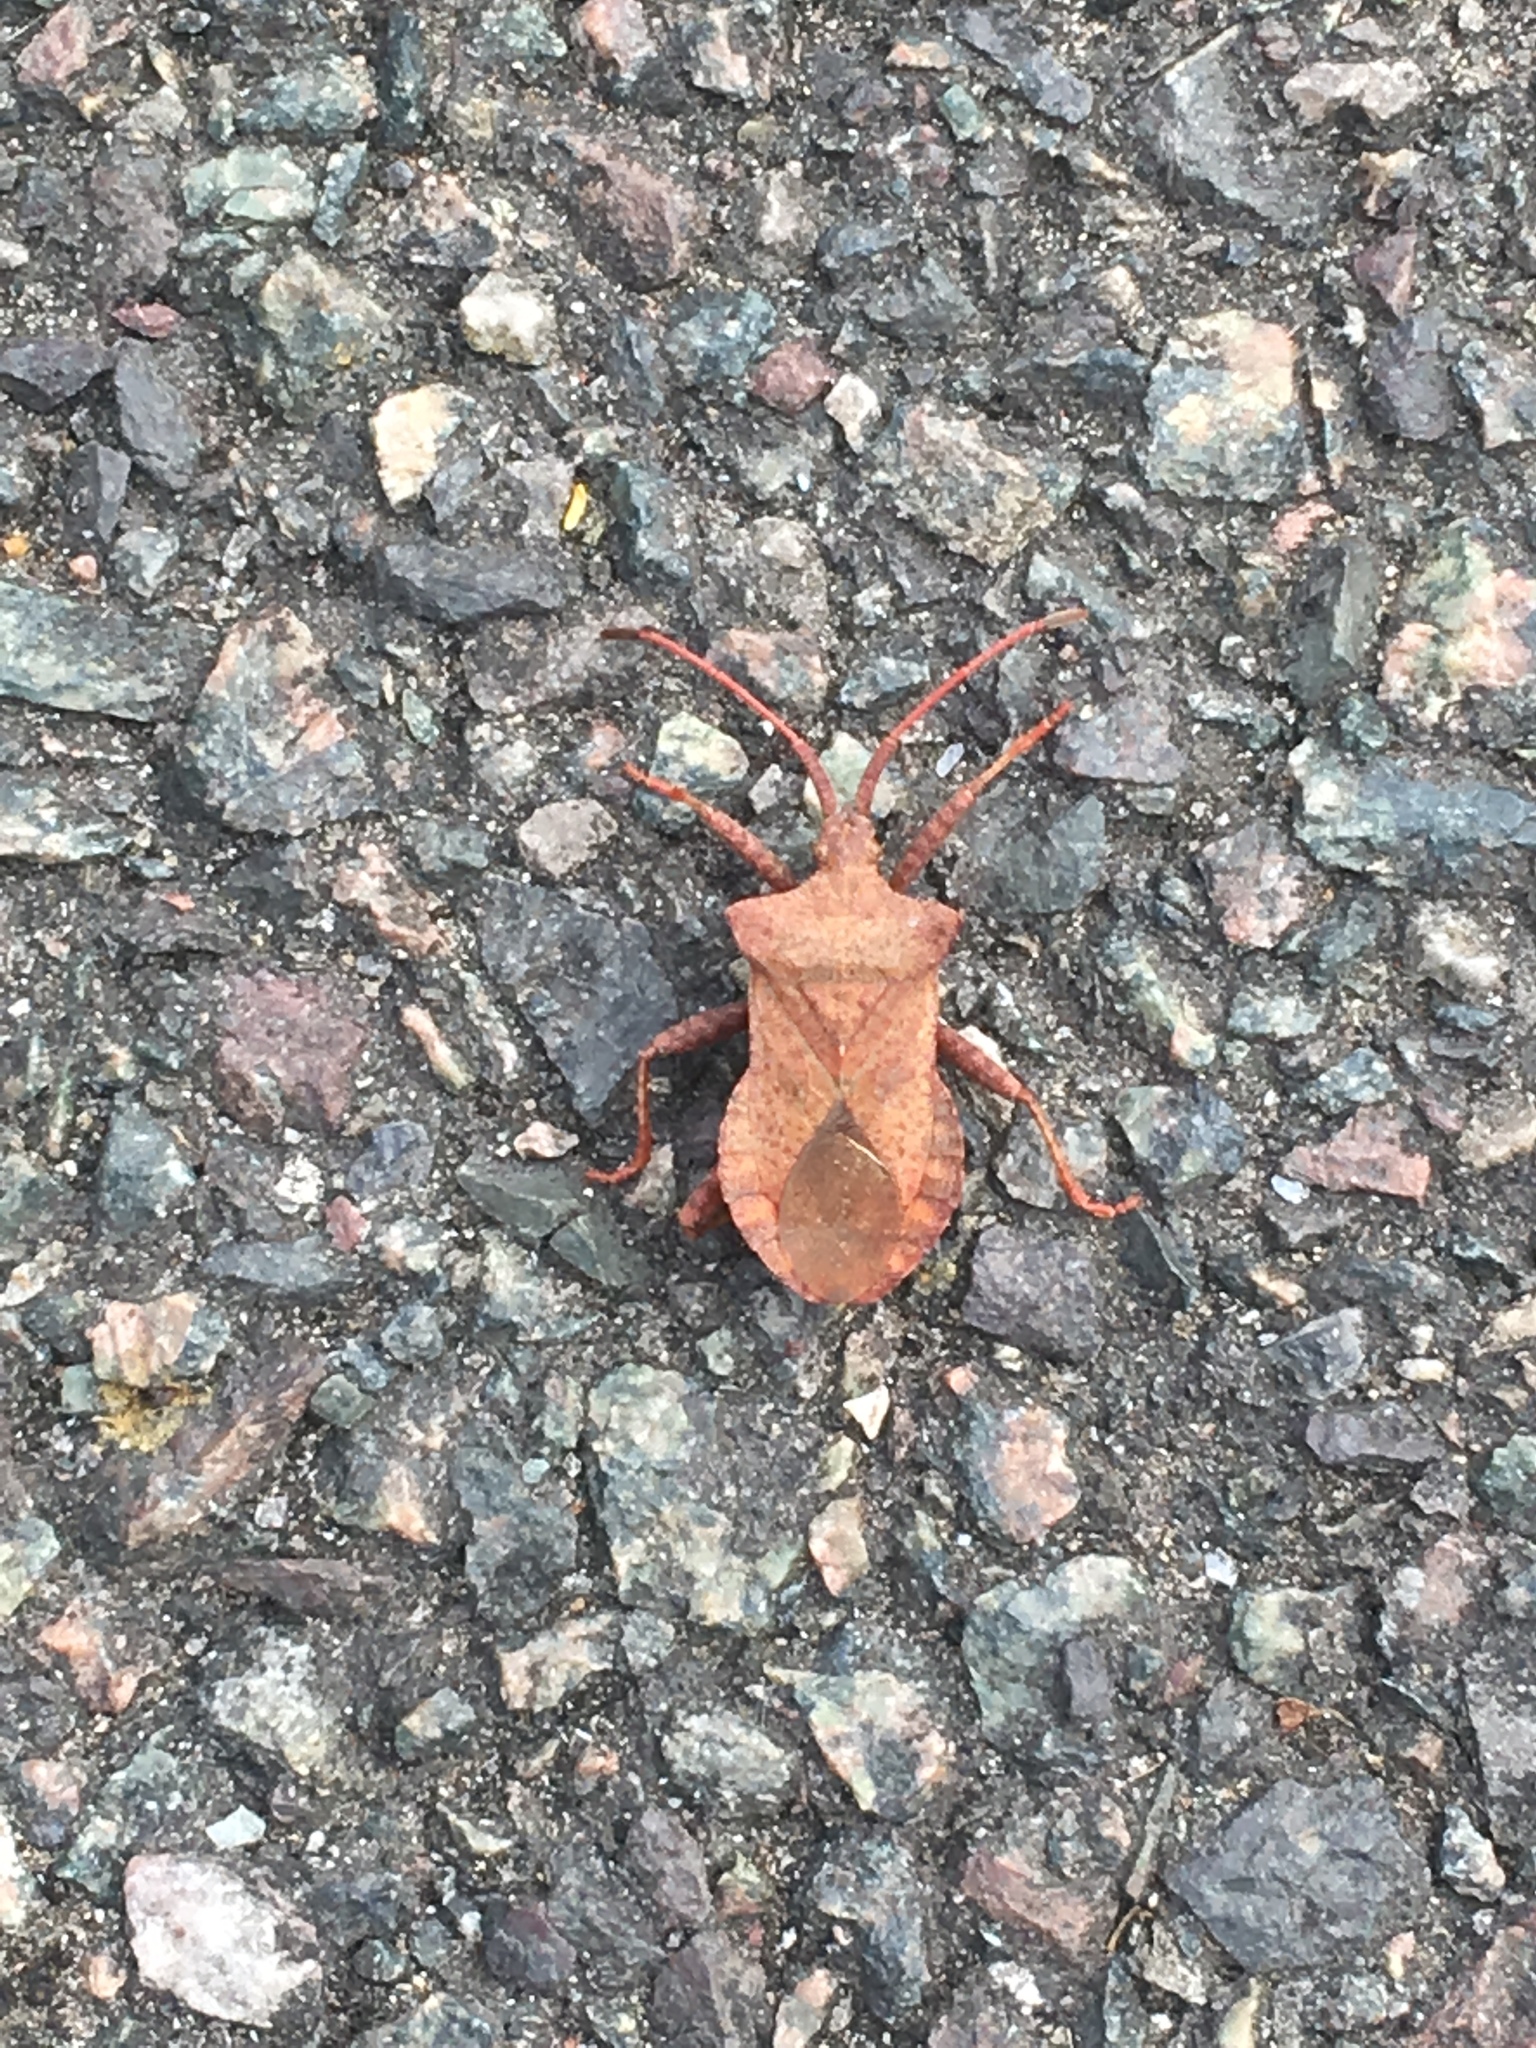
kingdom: Animalia
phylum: Arthropoda
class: Insecta
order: Hemiptera
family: Coreidae
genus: Coreus
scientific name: Coreus marginatus
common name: Dock bug
